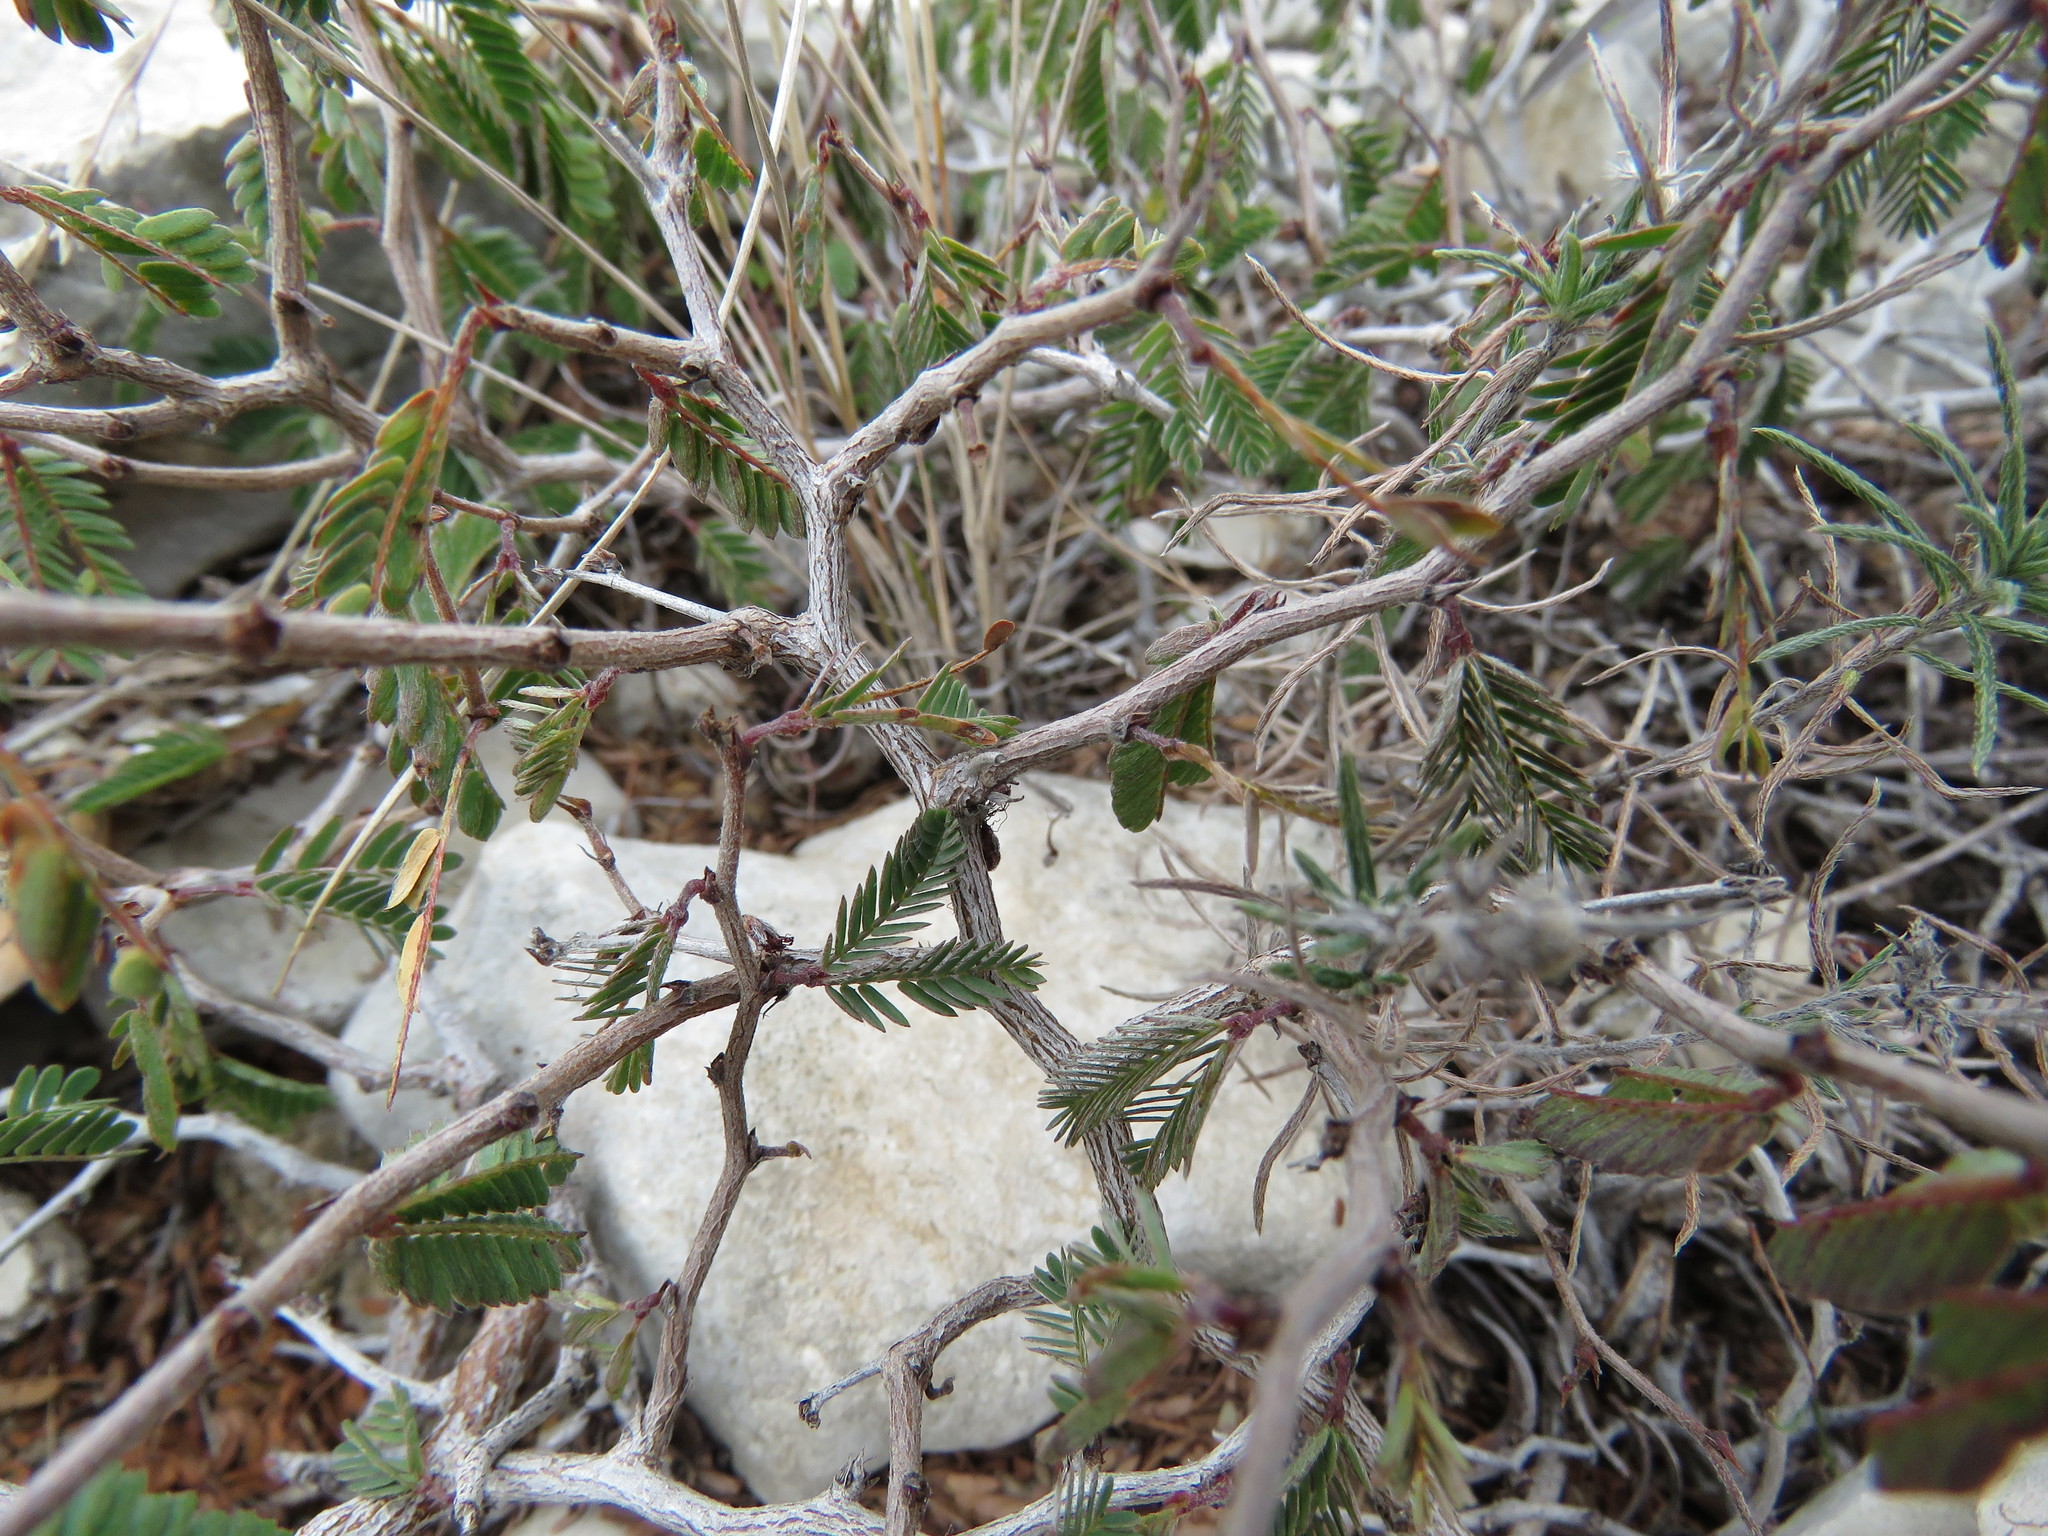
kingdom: Plantae
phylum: Tracheophyta
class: Magnoliopsida
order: Fabales
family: Fabaceae
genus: Calliandra
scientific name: Calliandra conferta
